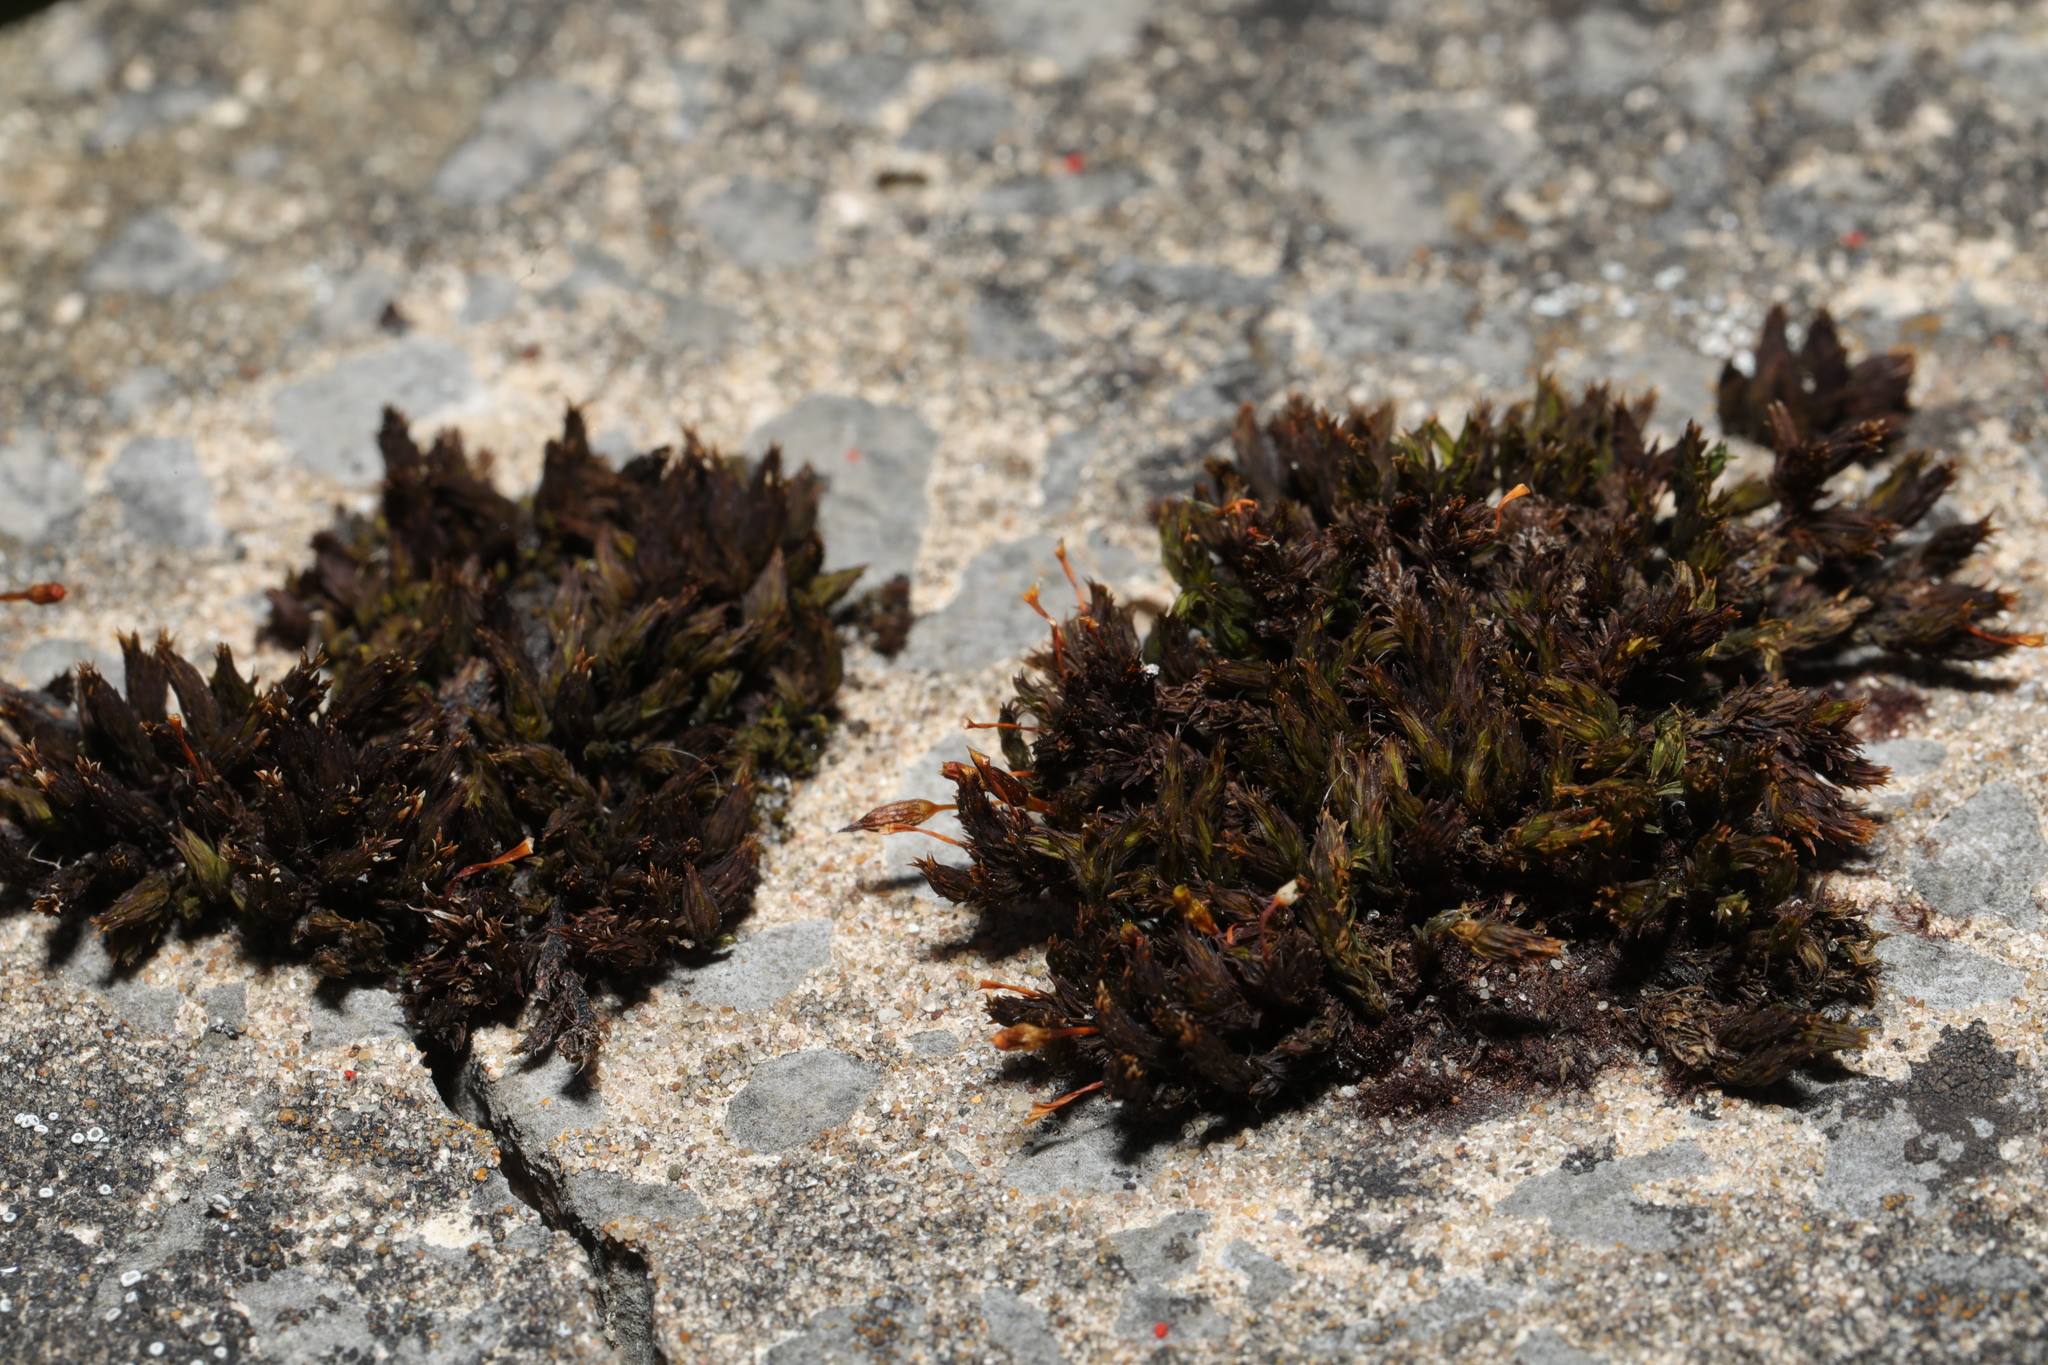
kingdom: Plantae
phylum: Bryophyta
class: Bryopsida
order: Orthotrichales
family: Orthotrichaceae
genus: Orthotrichum
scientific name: Orthotrichum anomalum
